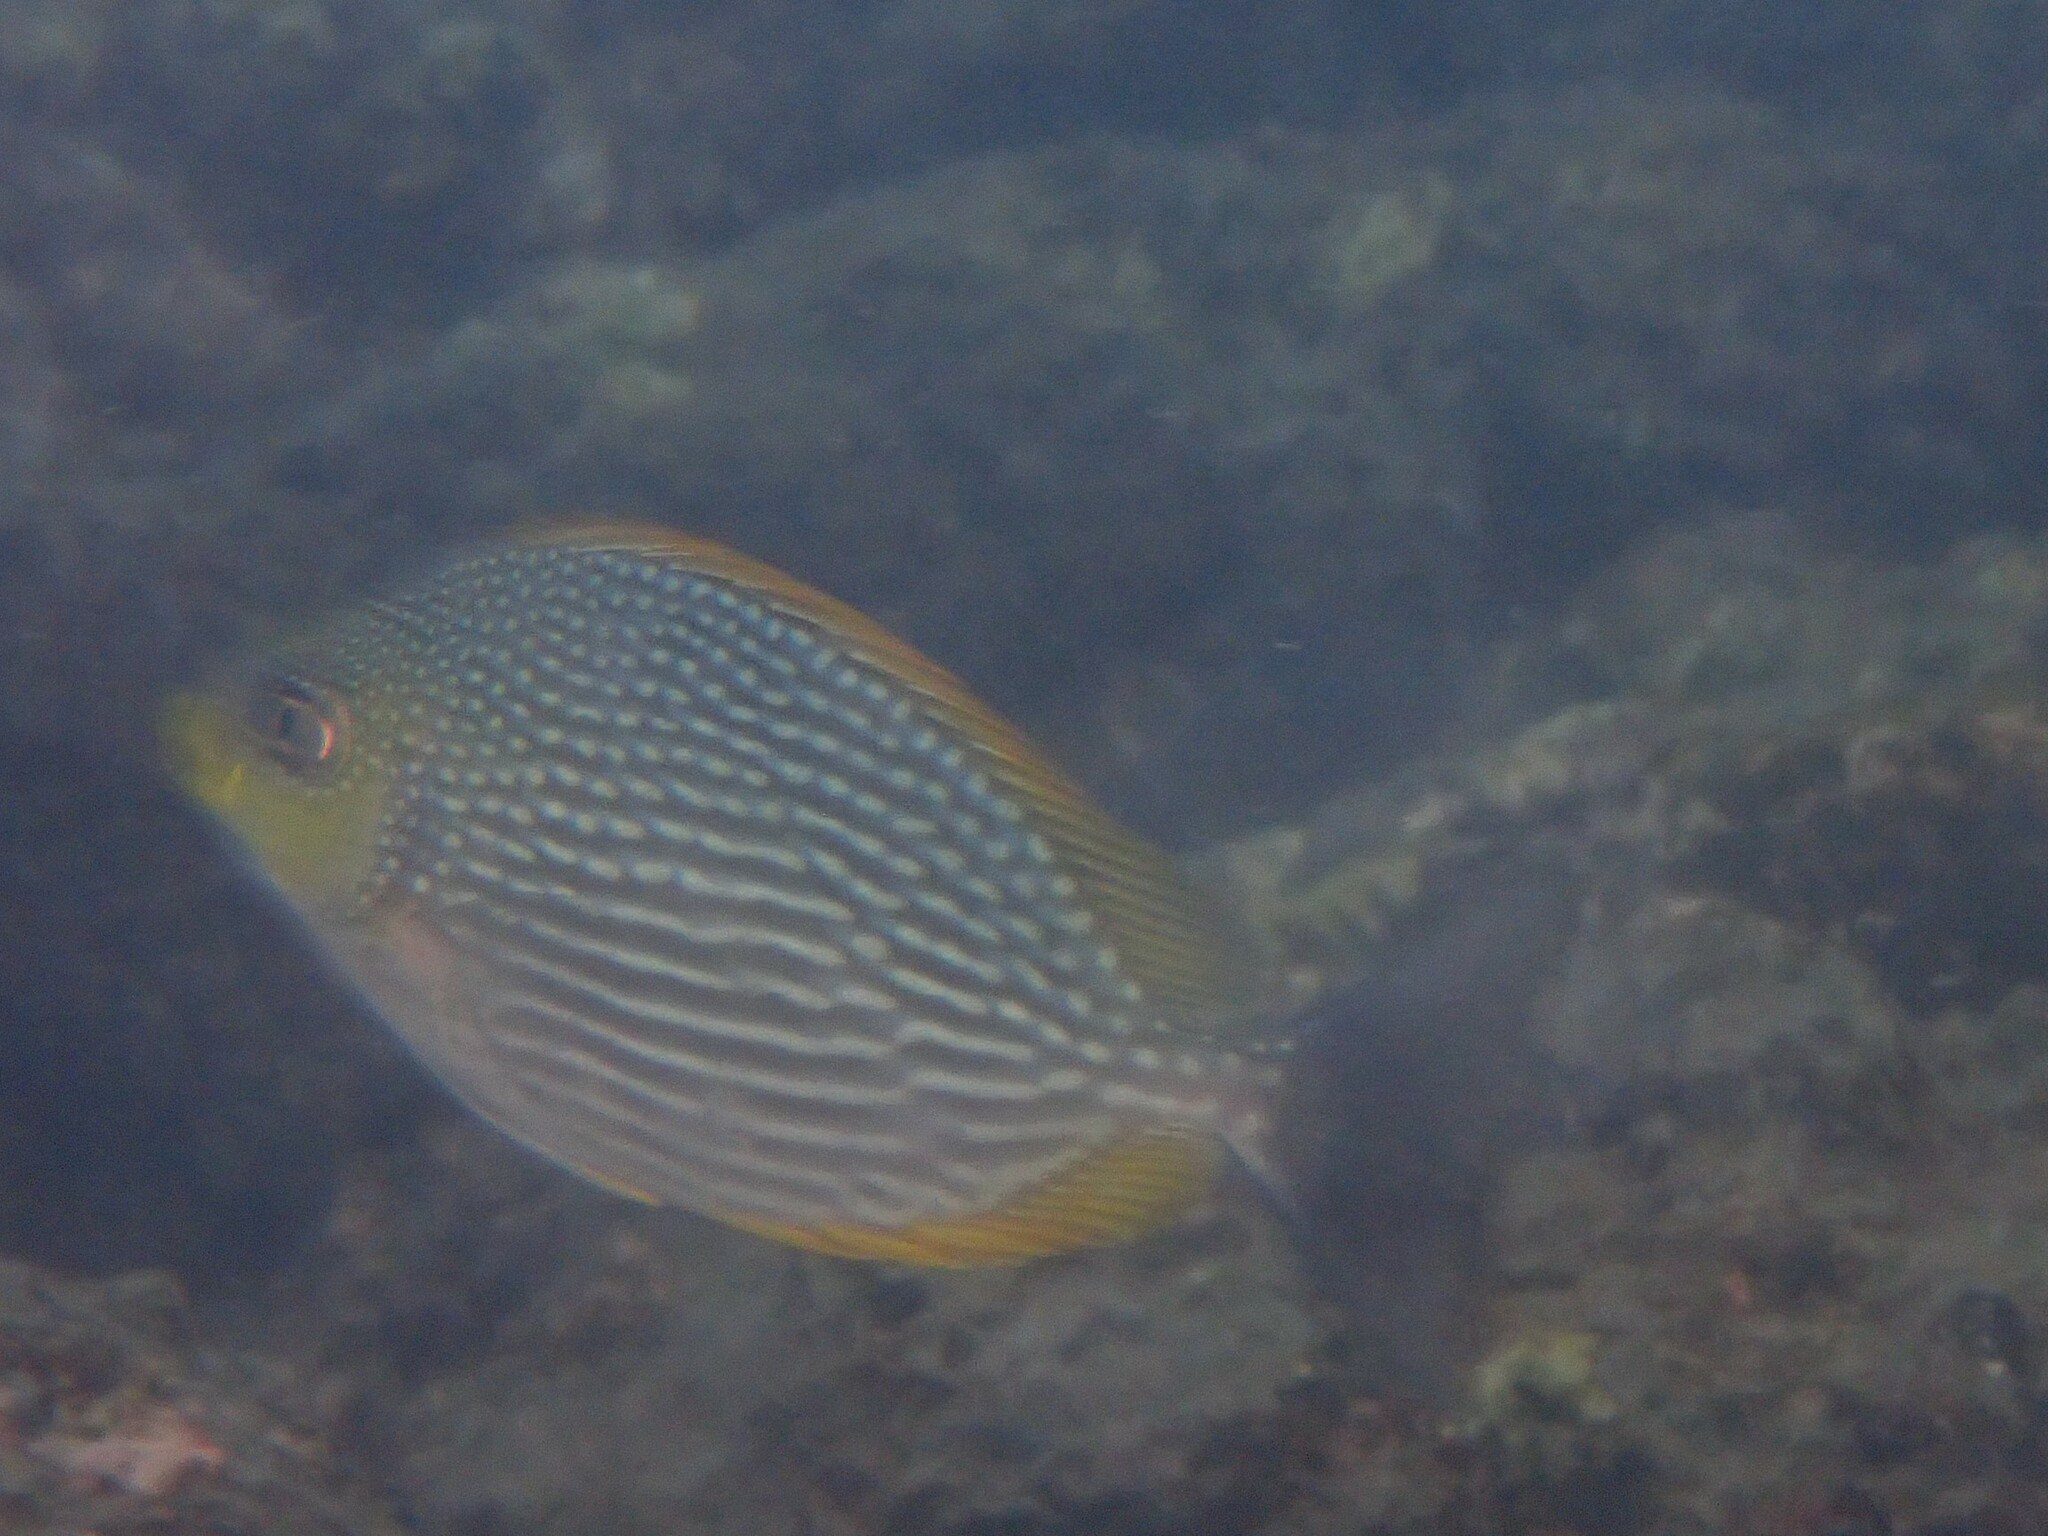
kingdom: Animalia
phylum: Chordata
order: Perciformes
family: Siganidae
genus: Siganus
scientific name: Siganus javus
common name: Java rabbitfish
